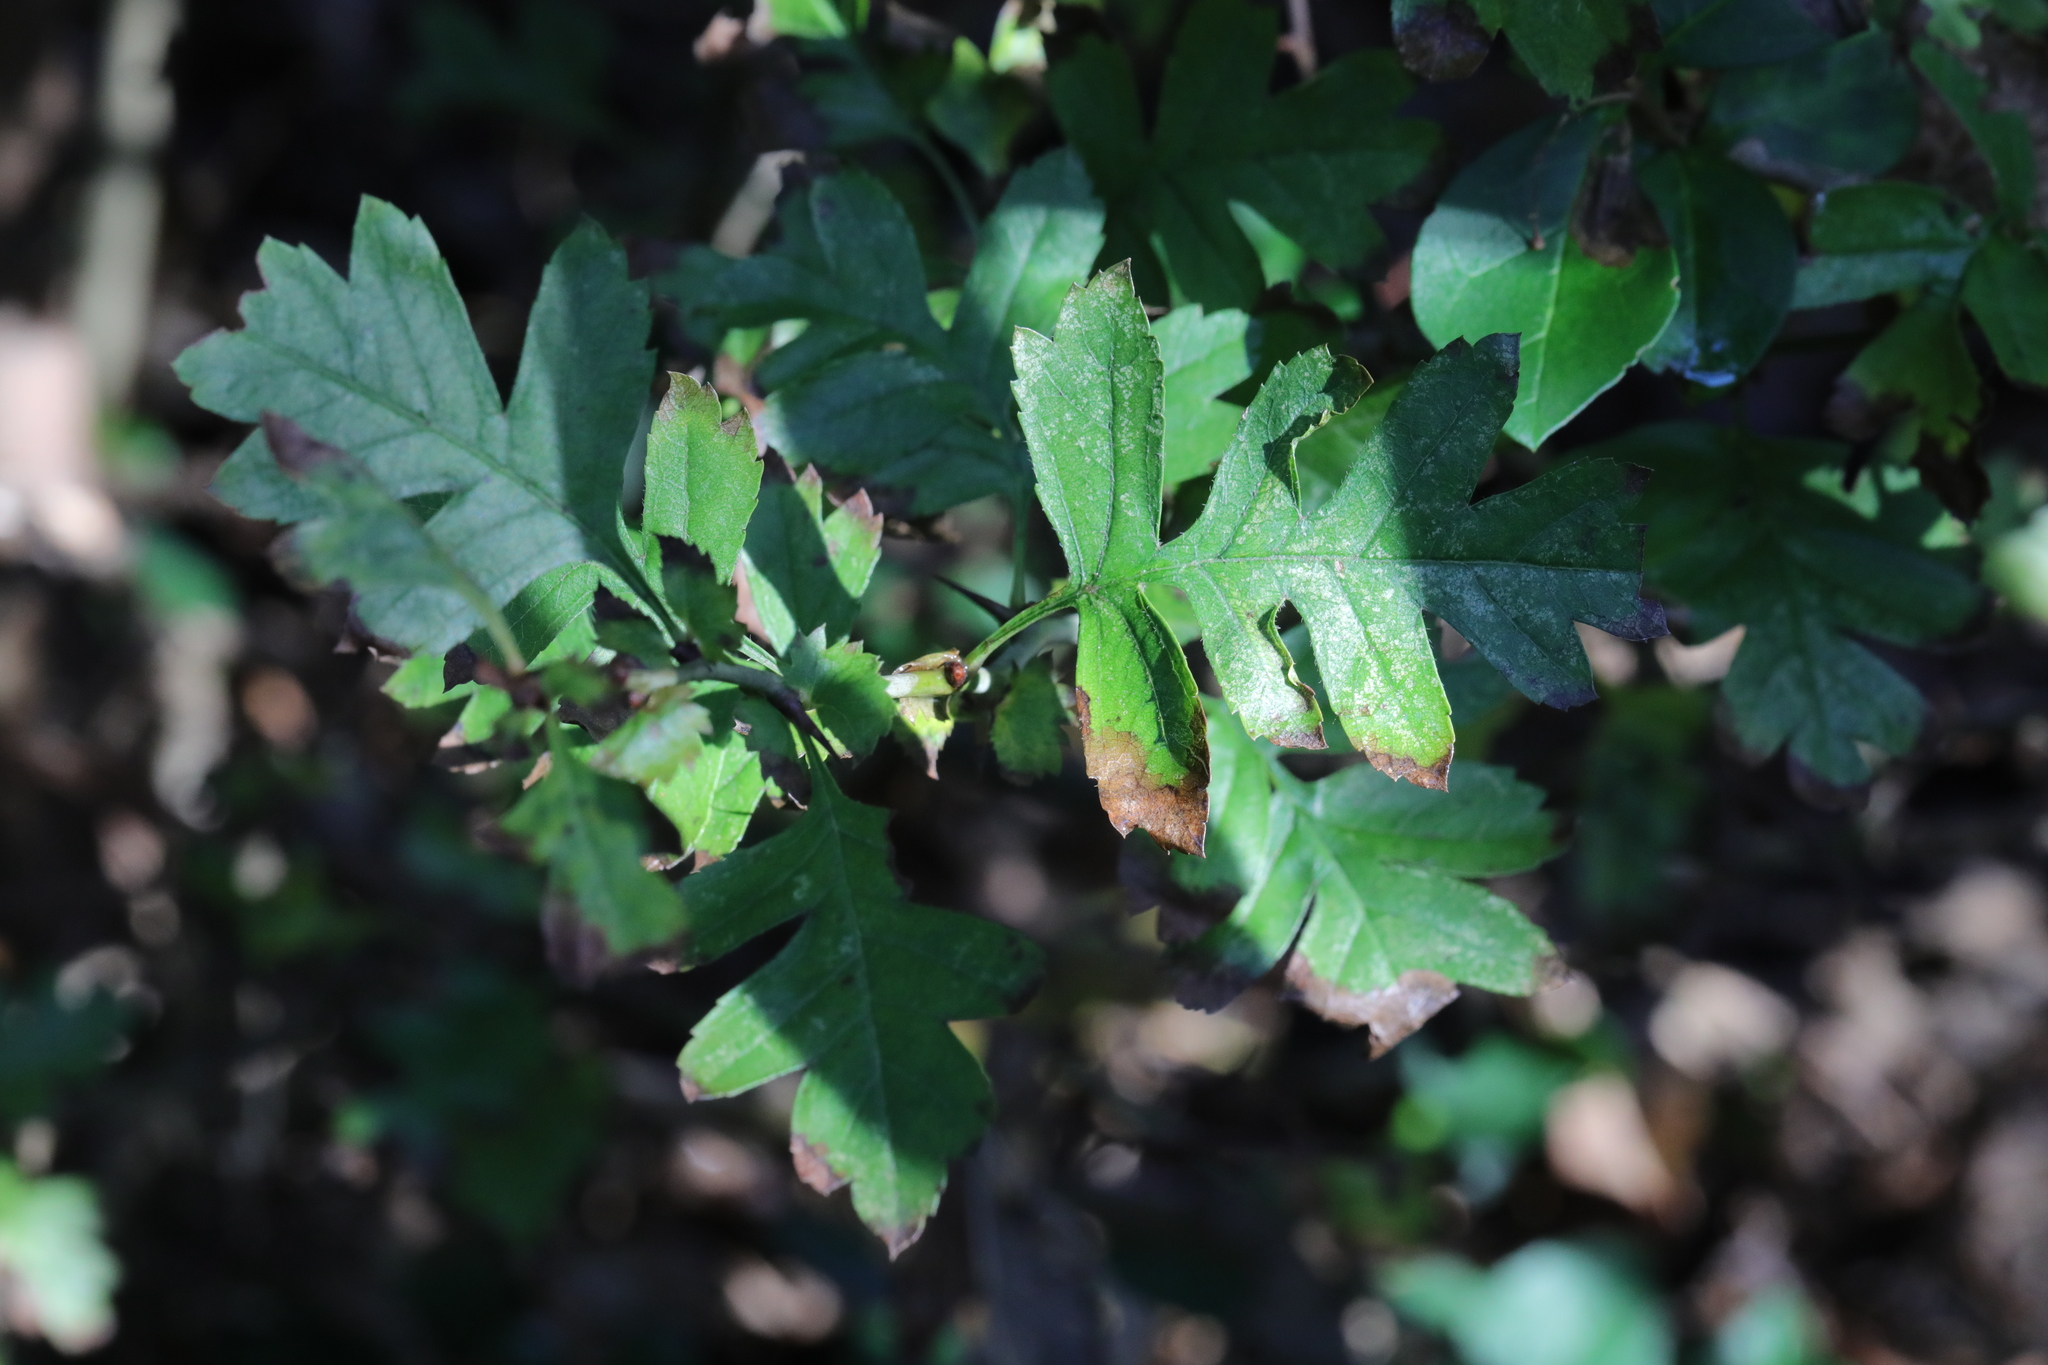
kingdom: Plantae
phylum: Tracheophyta
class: Magnoliopsida
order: Rosales
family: Rosaceae
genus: Crataegus
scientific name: Crataegus monogyna
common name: Hawthorn
